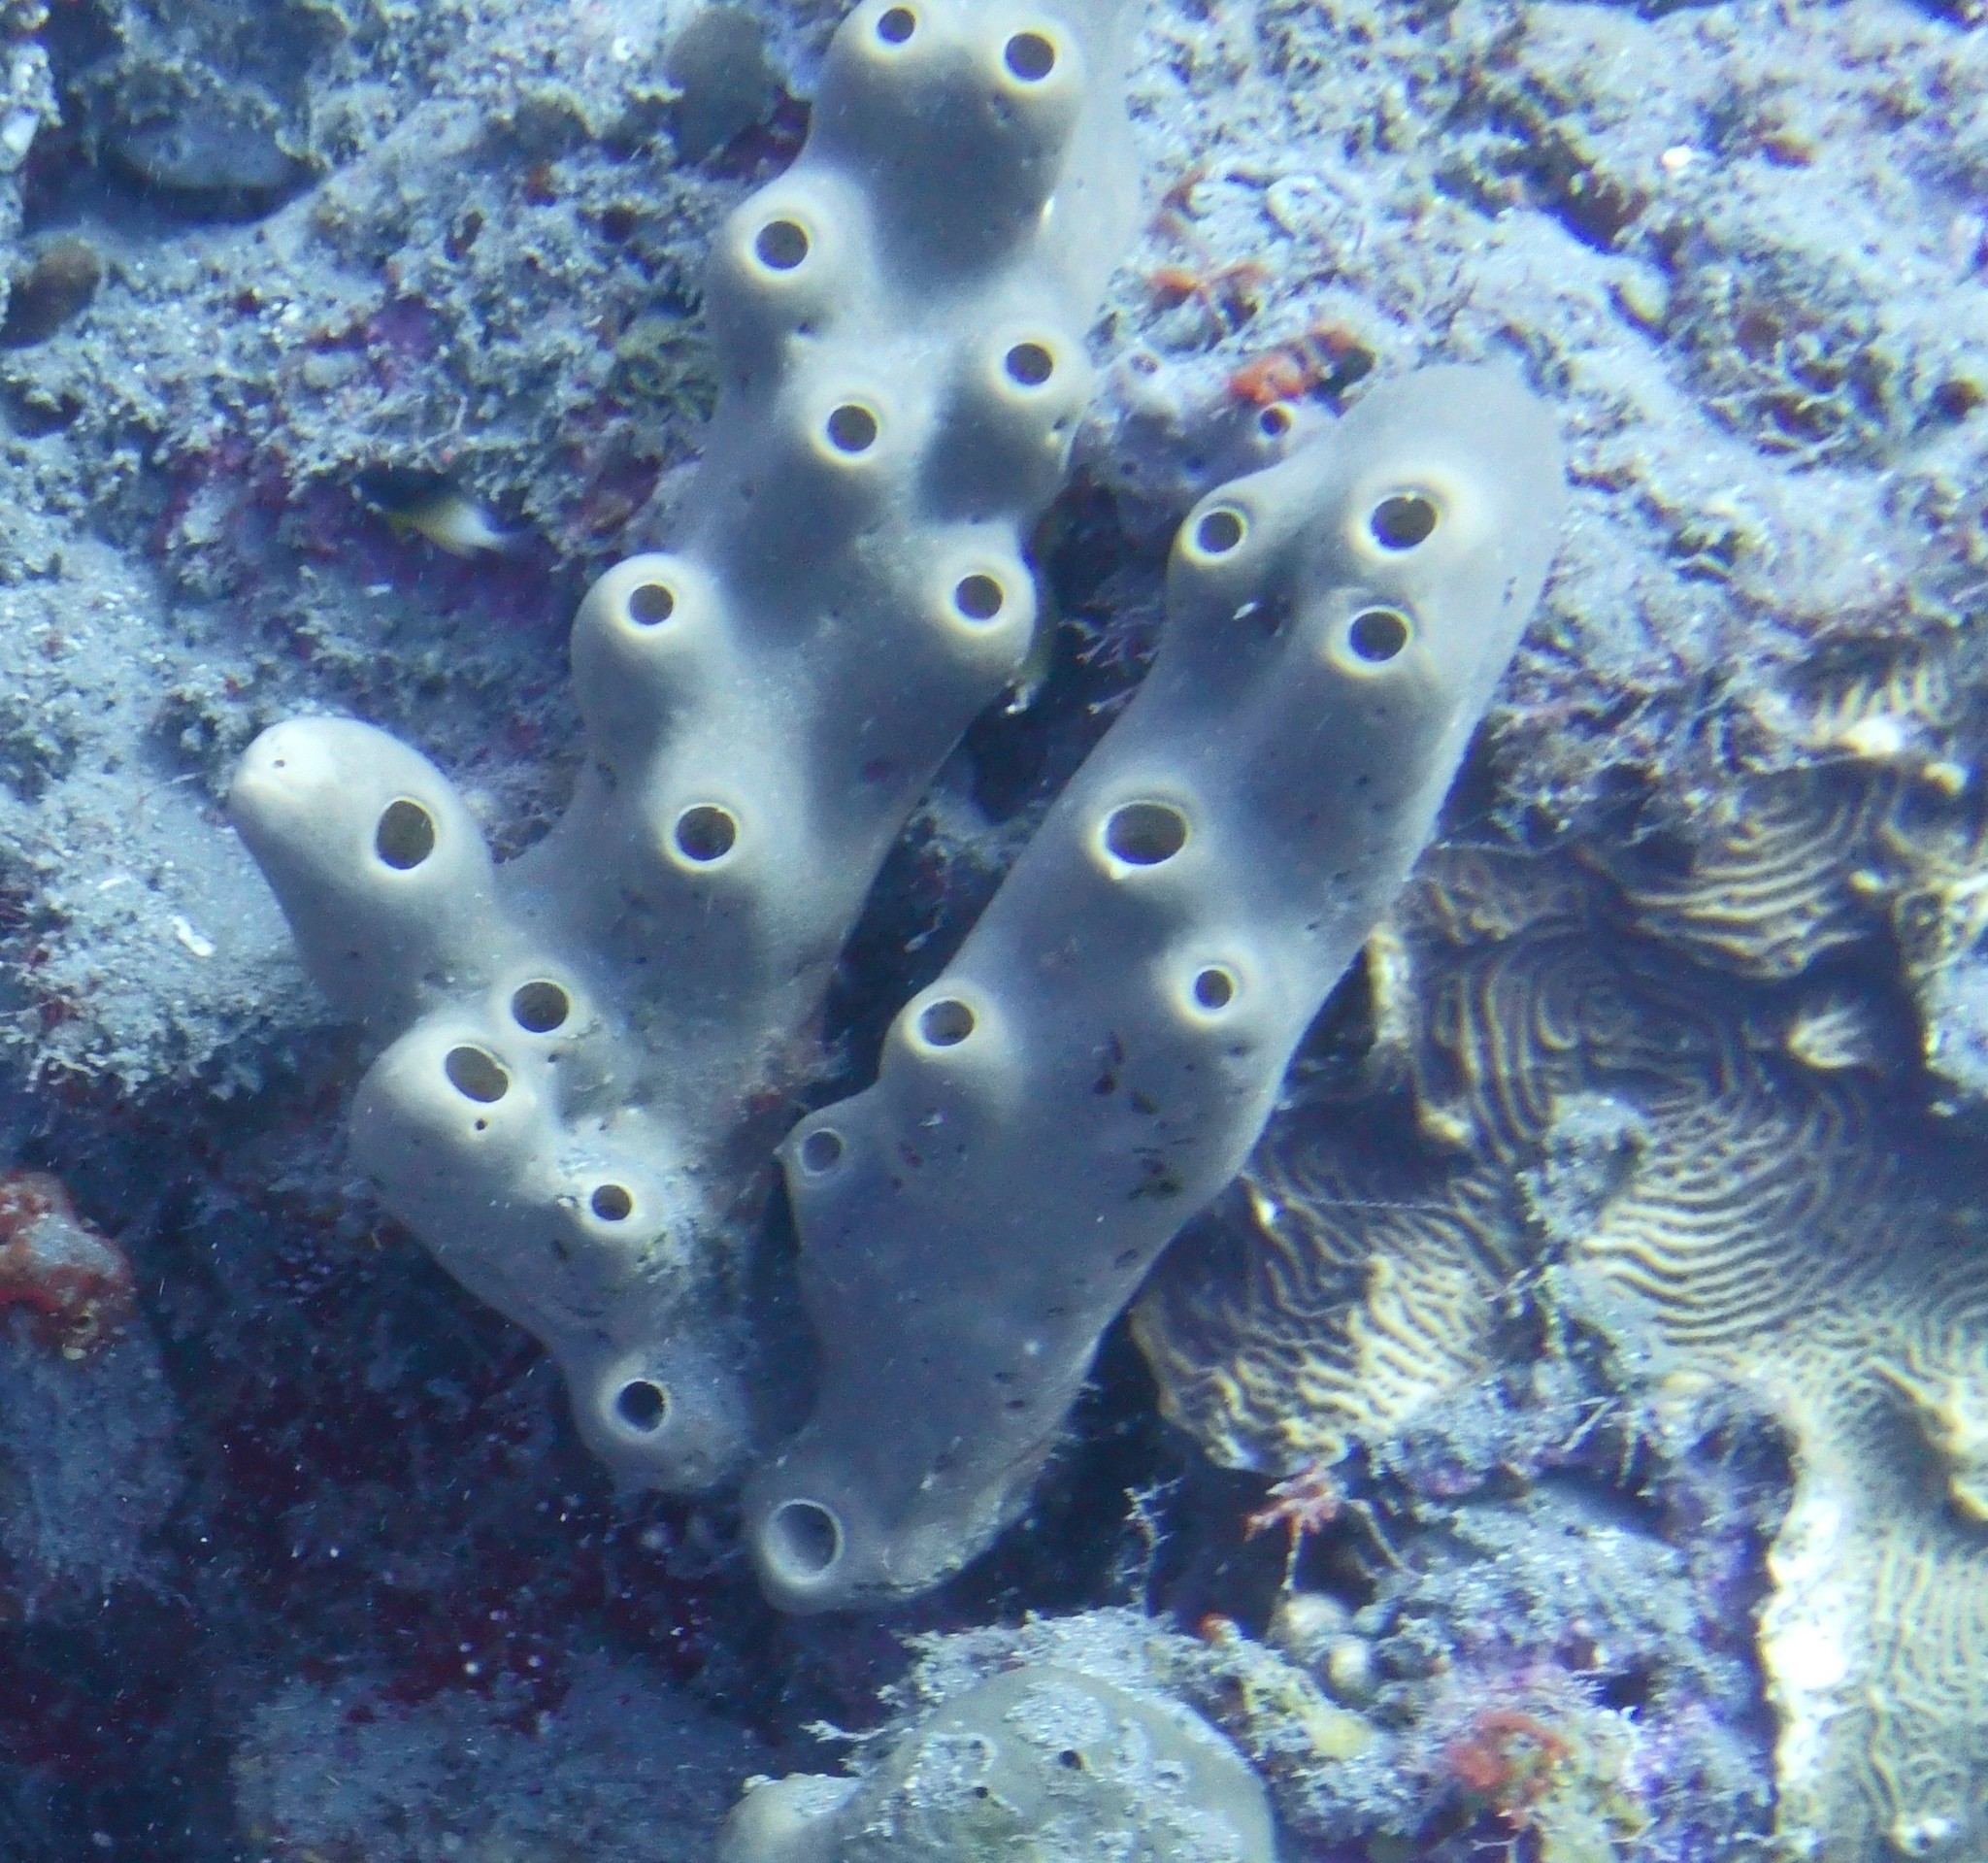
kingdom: Animalia
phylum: Porifera
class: Demospongiae
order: Agelasida
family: Agelasidae
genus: Agelas
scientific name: Agelas conifera
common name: Brown tube sponge
